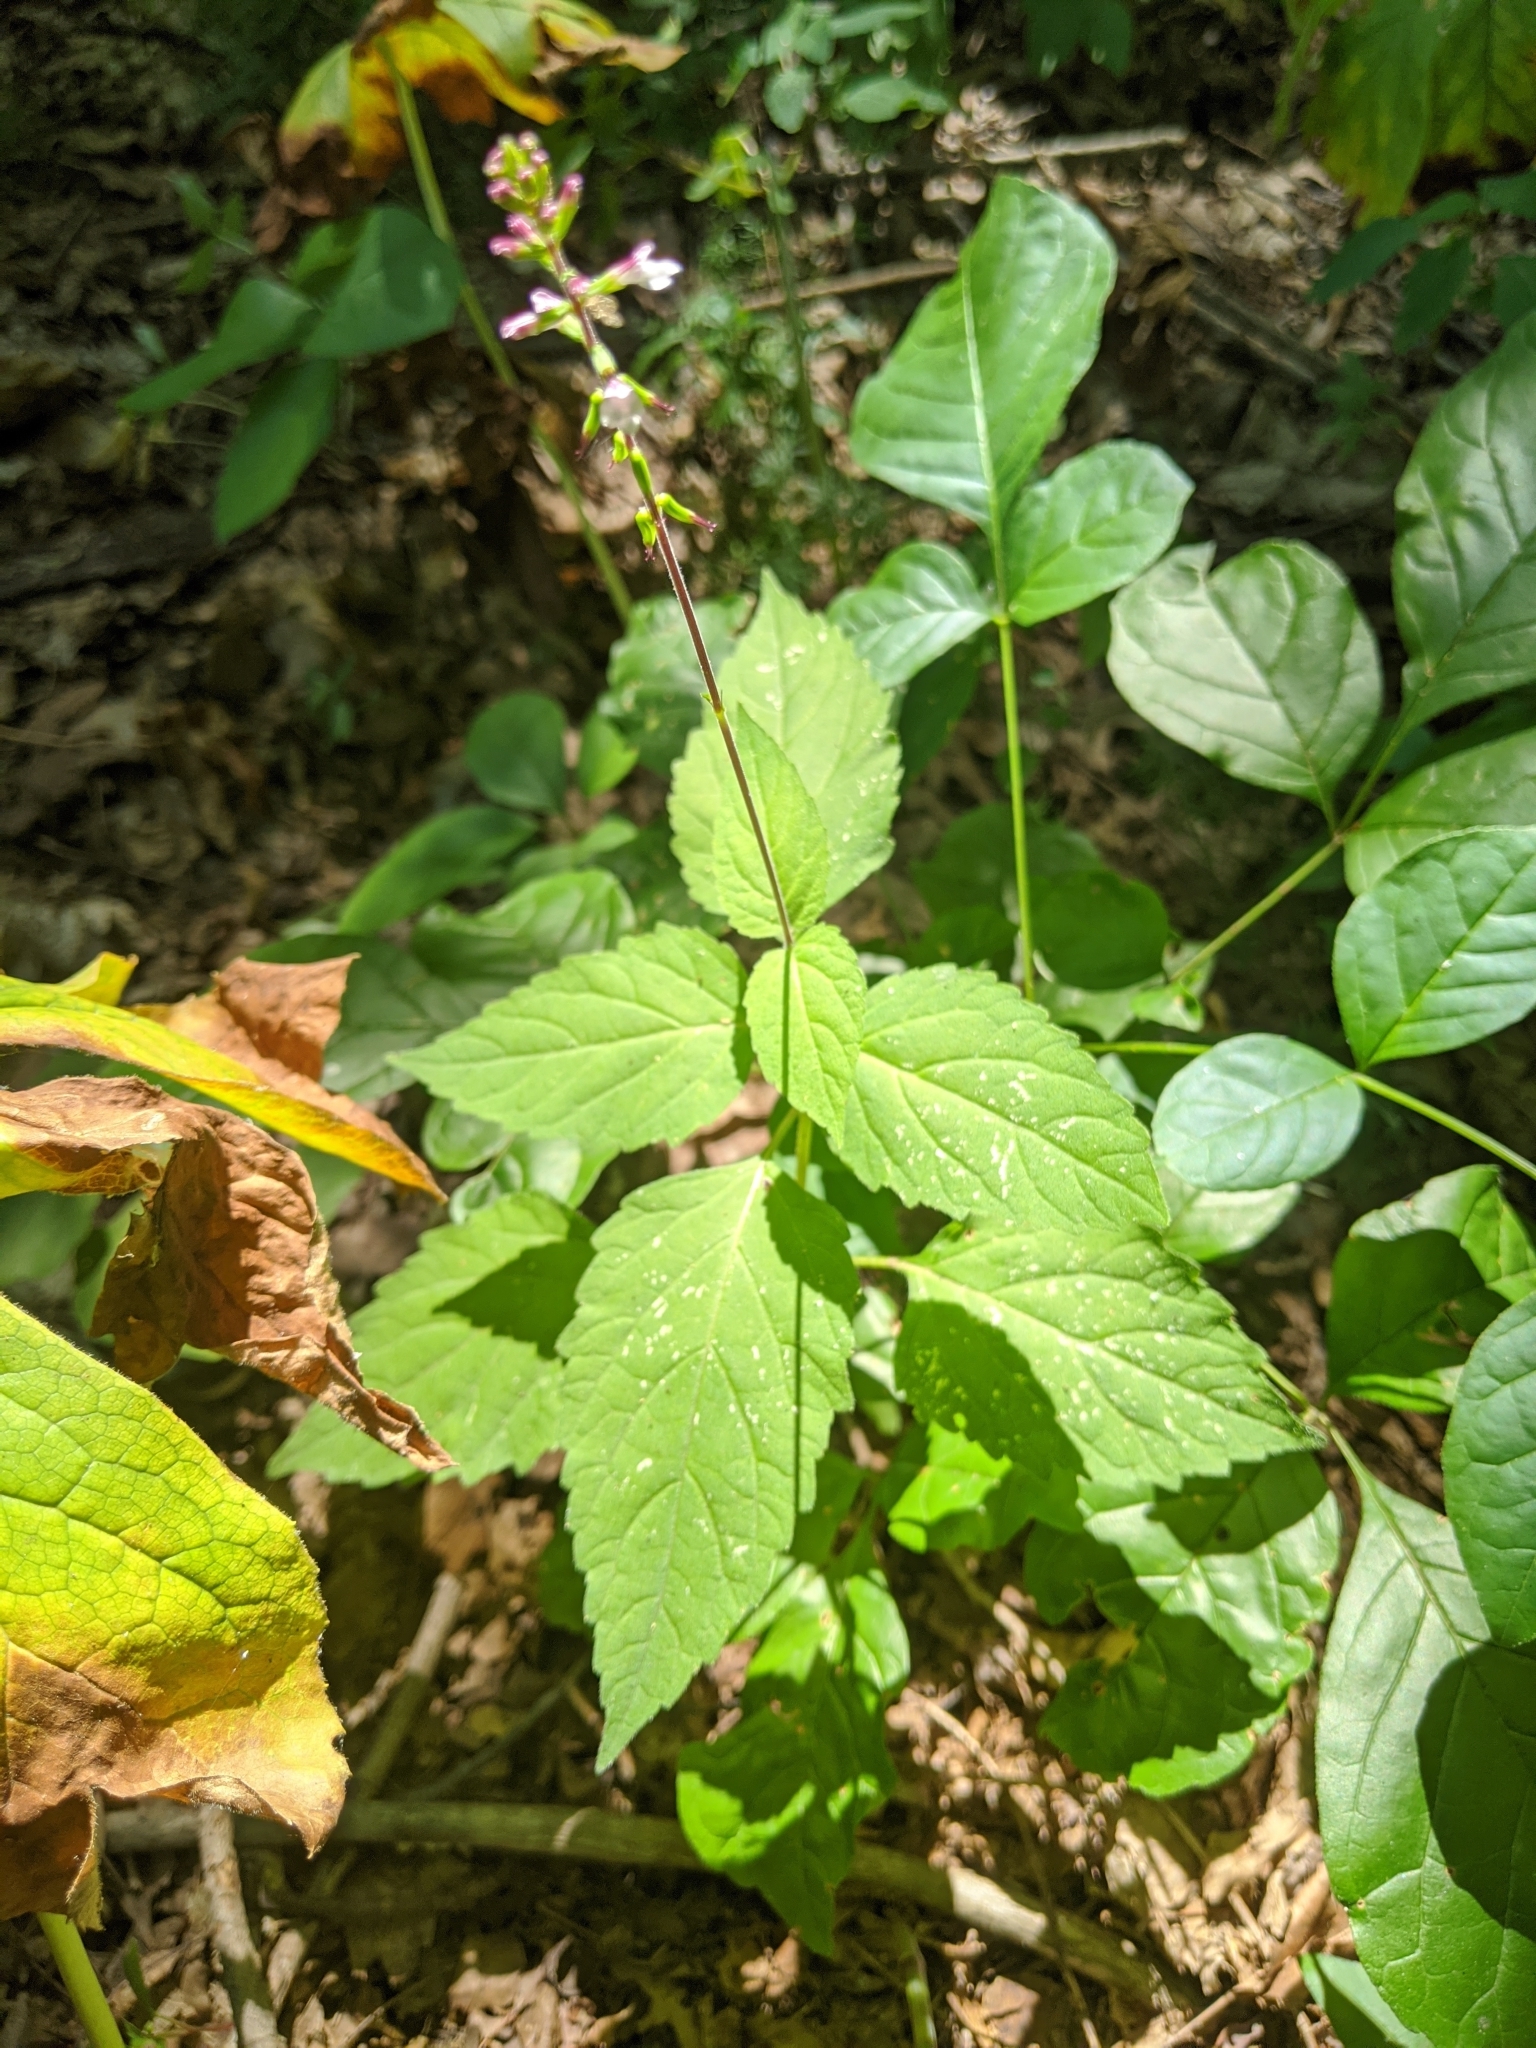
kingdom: Plantae
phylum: Tracheophyta
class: Magnoliopsida
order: Lamiales
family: Phrymaceae
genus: Phryma
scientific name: Phryma leptostachya
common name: American lopseed
